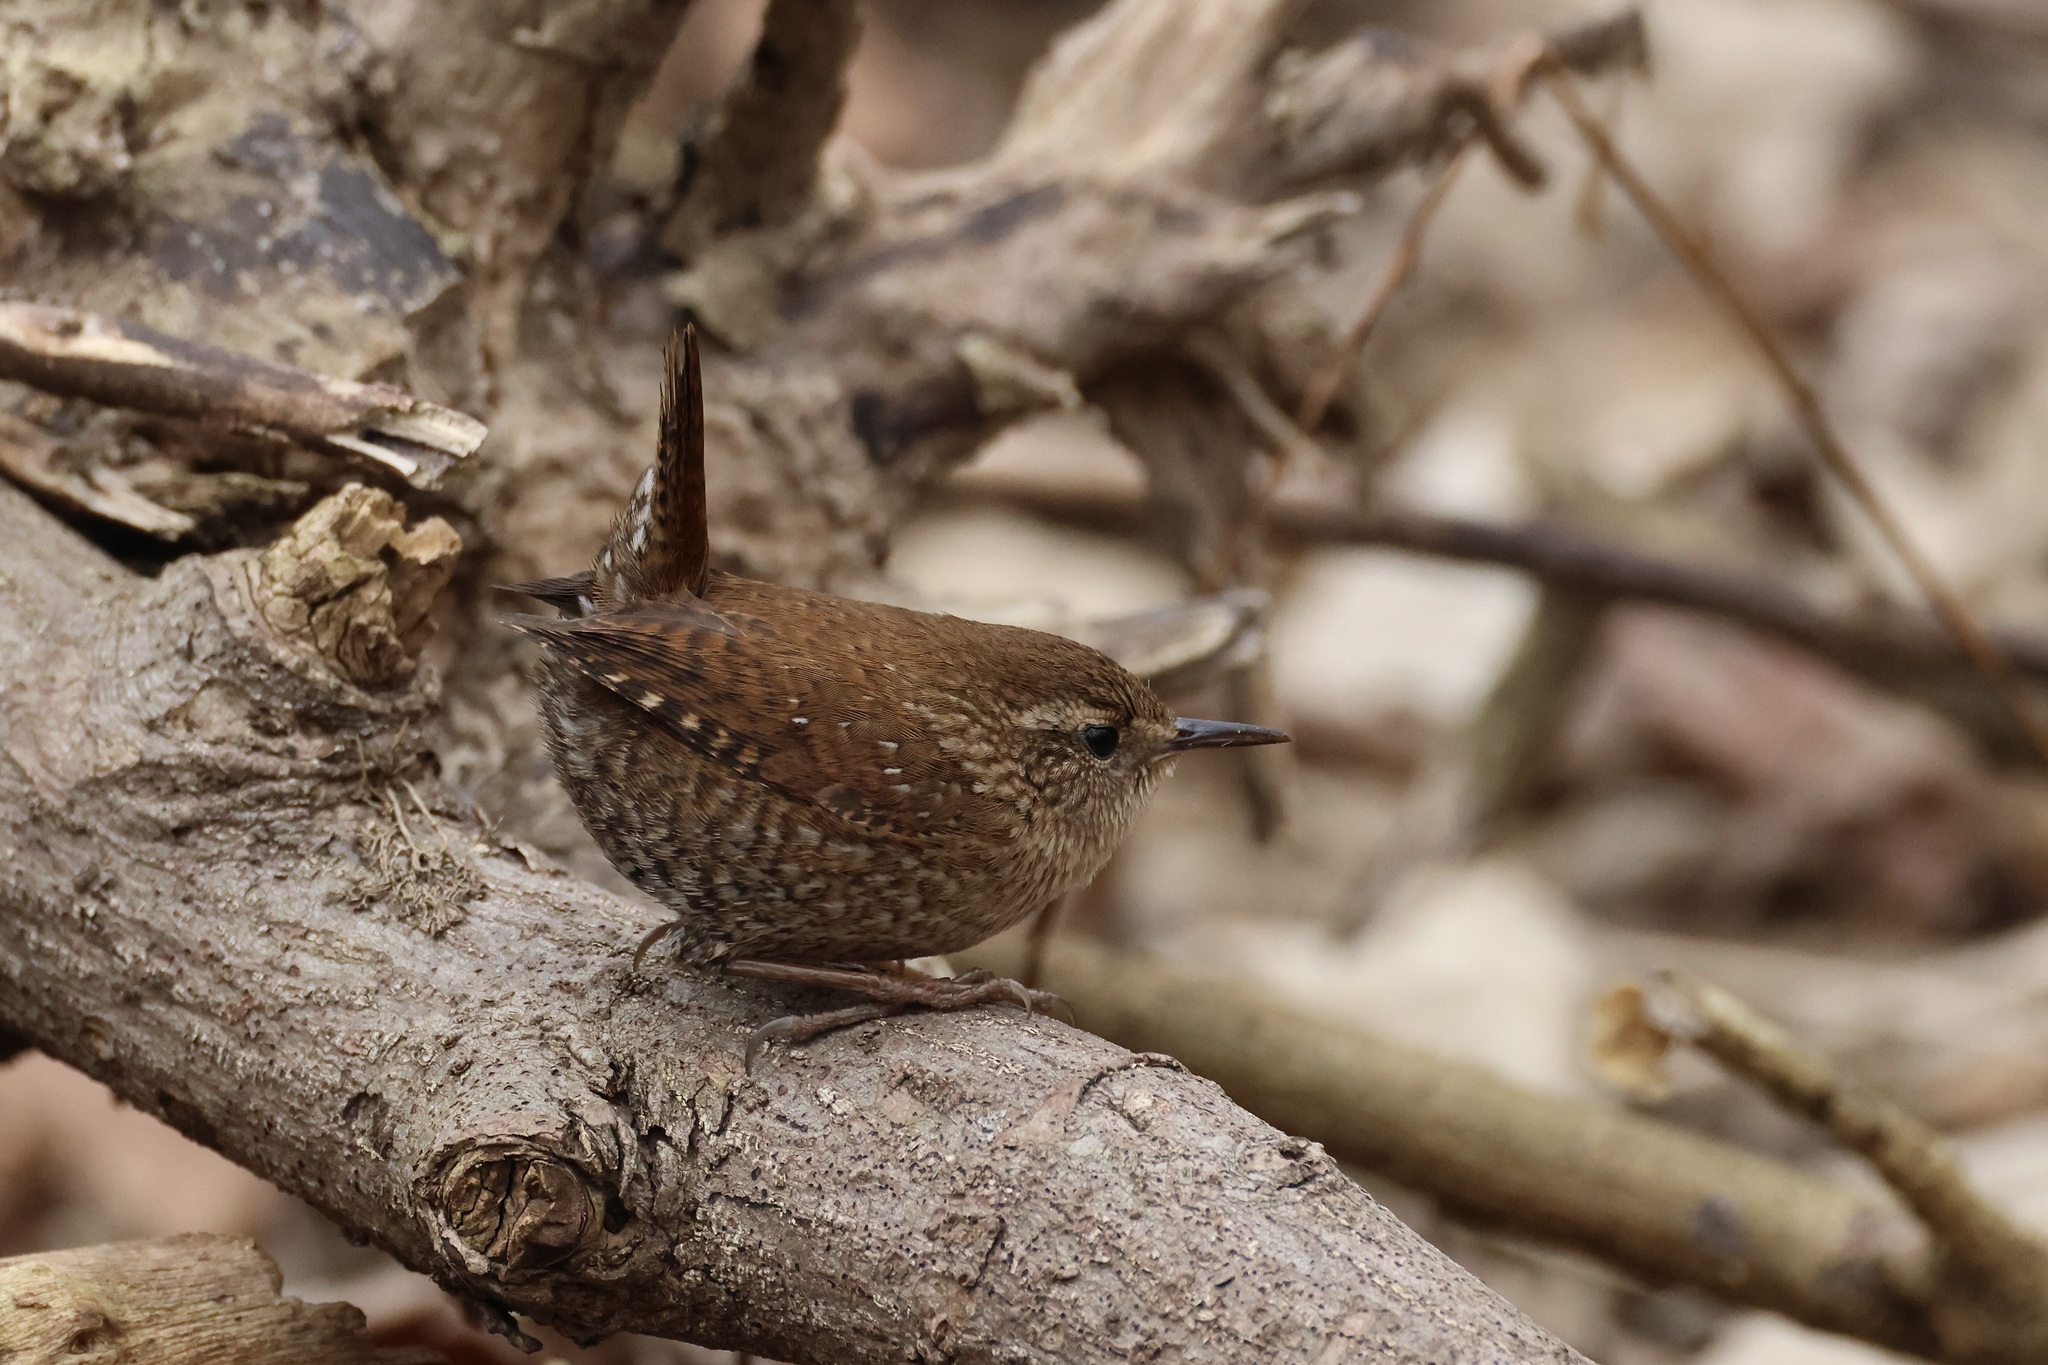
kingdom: Animalia
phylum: Chordata
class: Aves
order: Passeriformes
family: Troglodytidae
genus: Troglodytes
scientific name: Troglodytes hiemalis
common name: Winter wren
